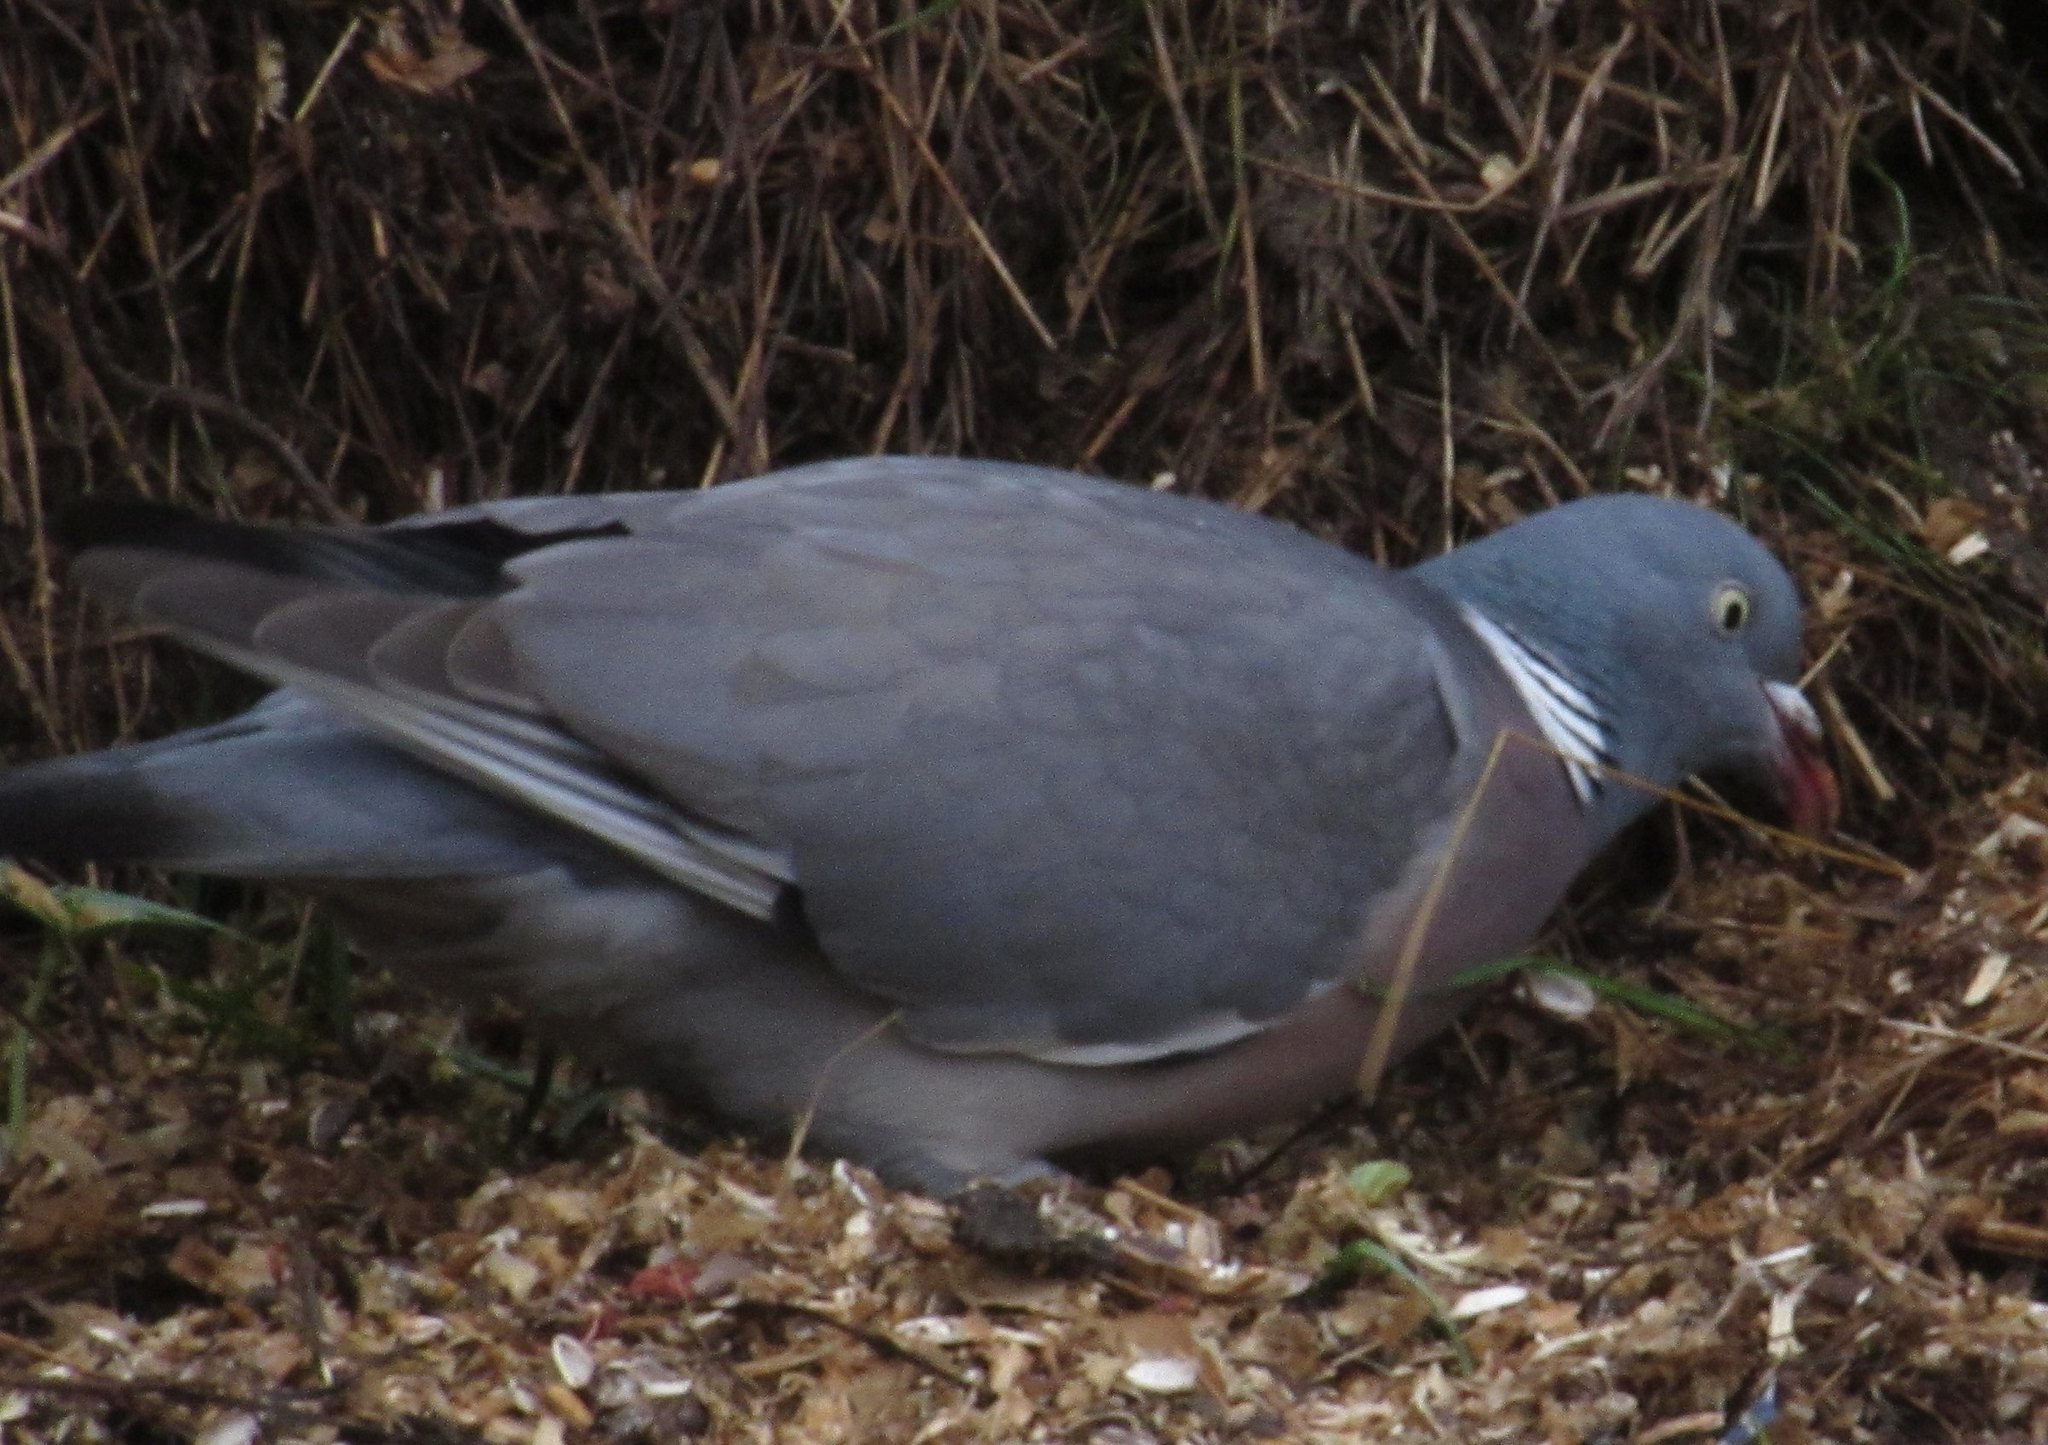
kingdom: Animalia
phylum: Chordata
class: Aves
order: Columbiformes
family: Columbidae
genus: Columba
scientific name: Columba palumbus
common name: Common wood pigeon
